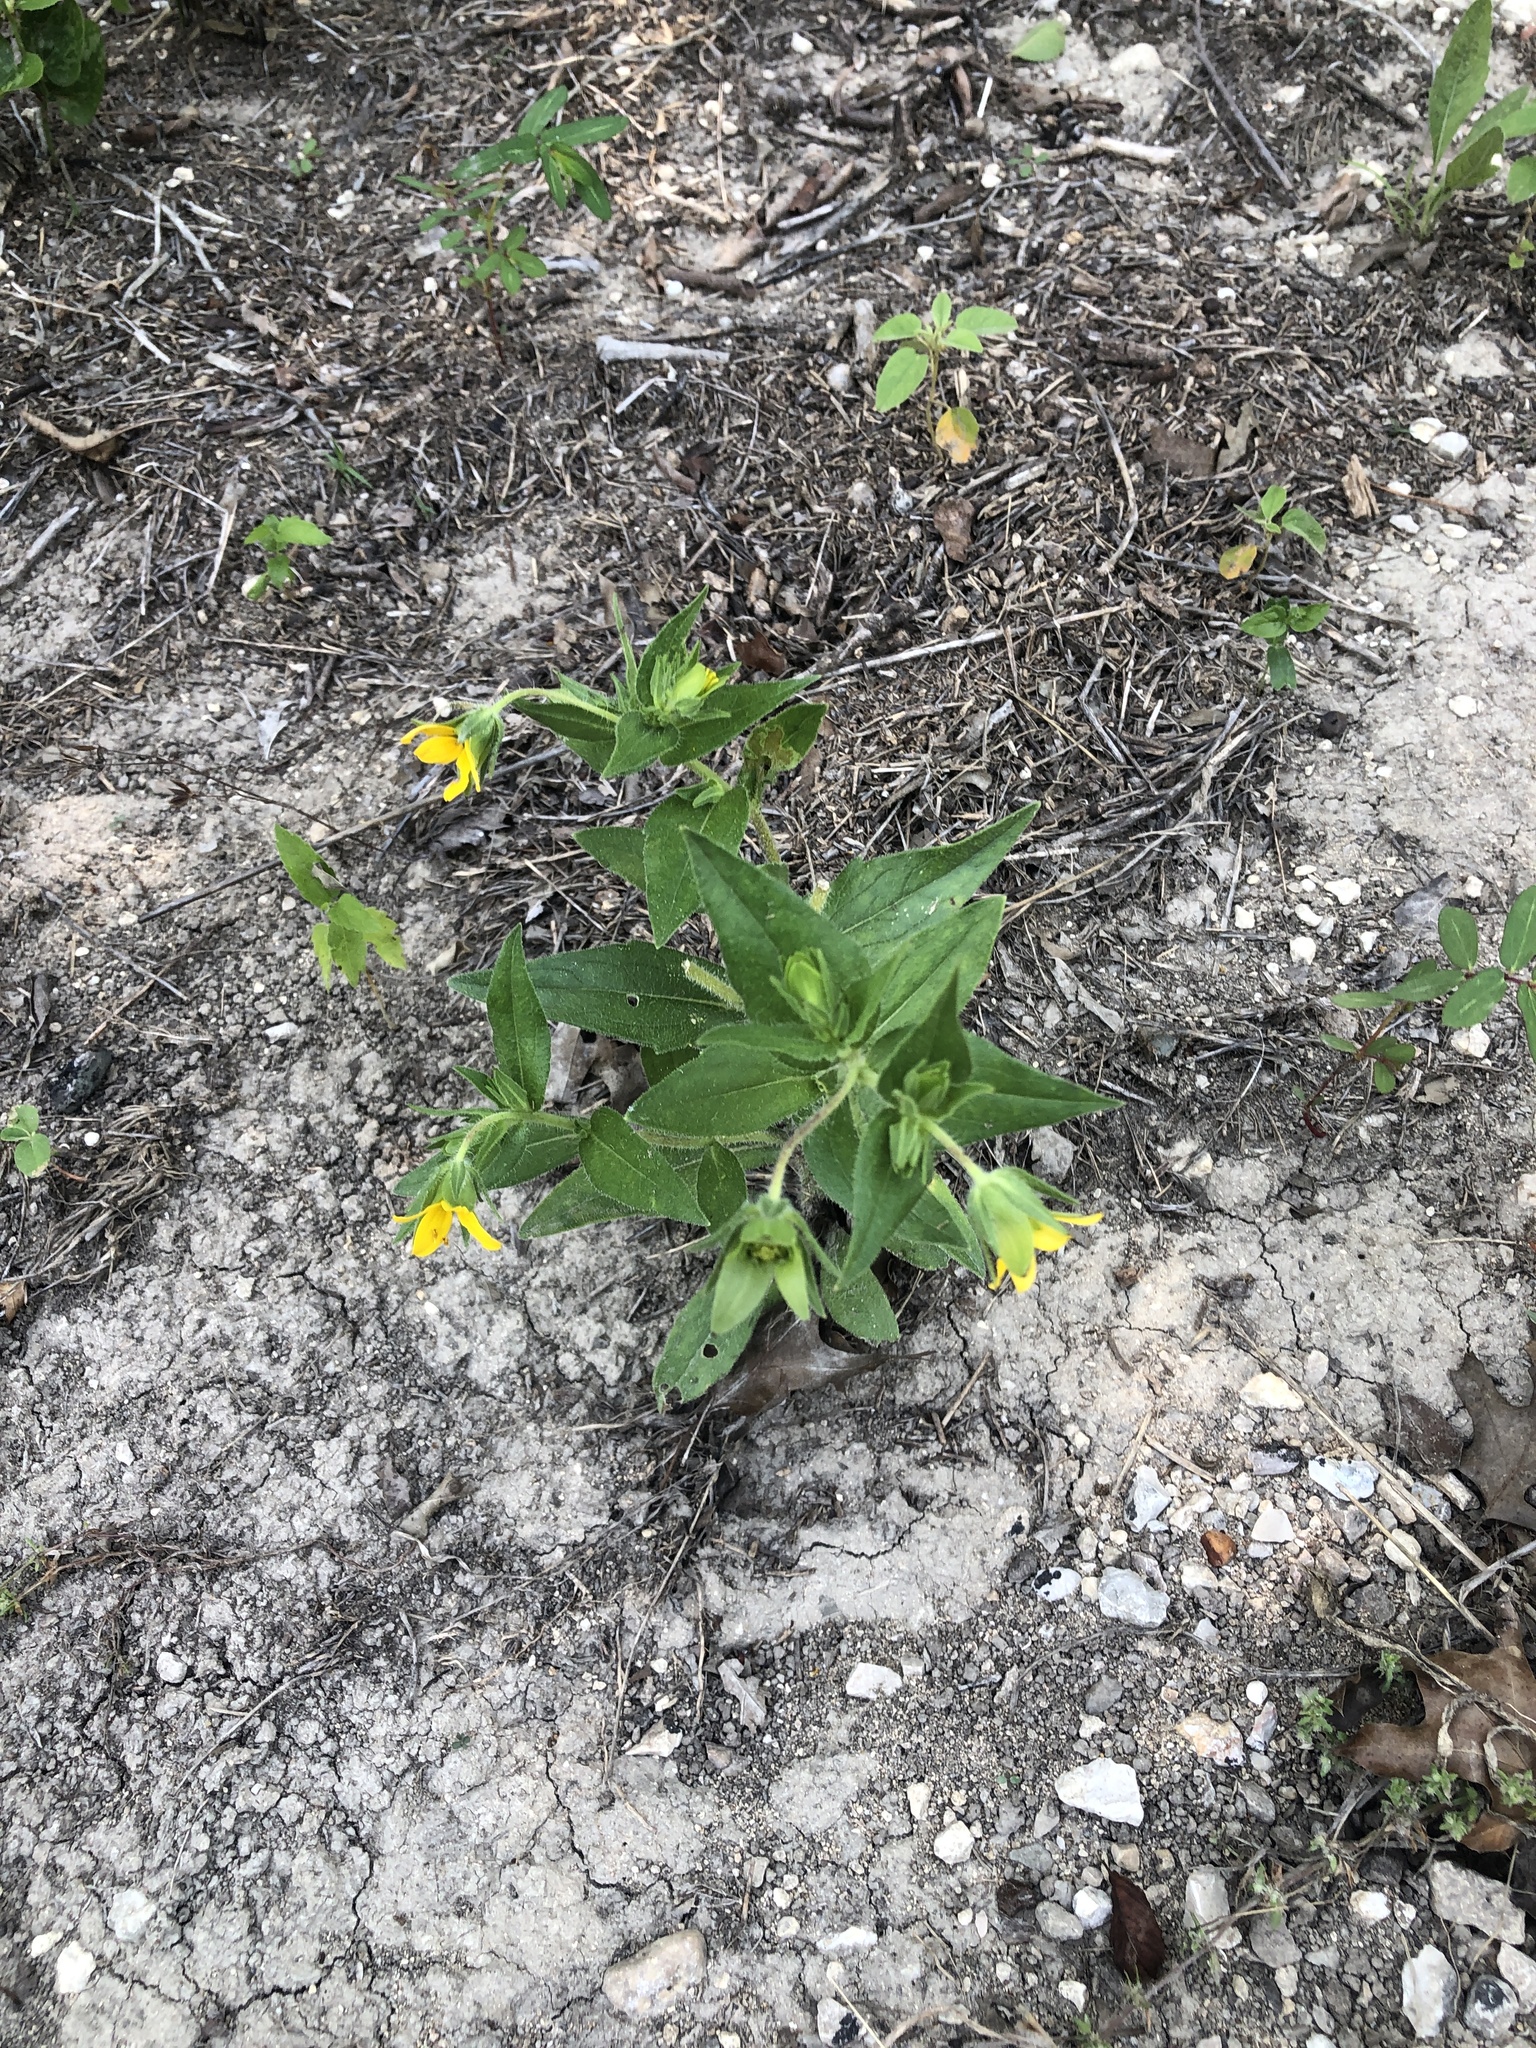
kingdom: Plantae
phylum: Tracheophyta
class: Magnoliopsida
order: Asterales
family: Asteraceae
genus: Lindheimera
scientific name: Lindheimera texana
